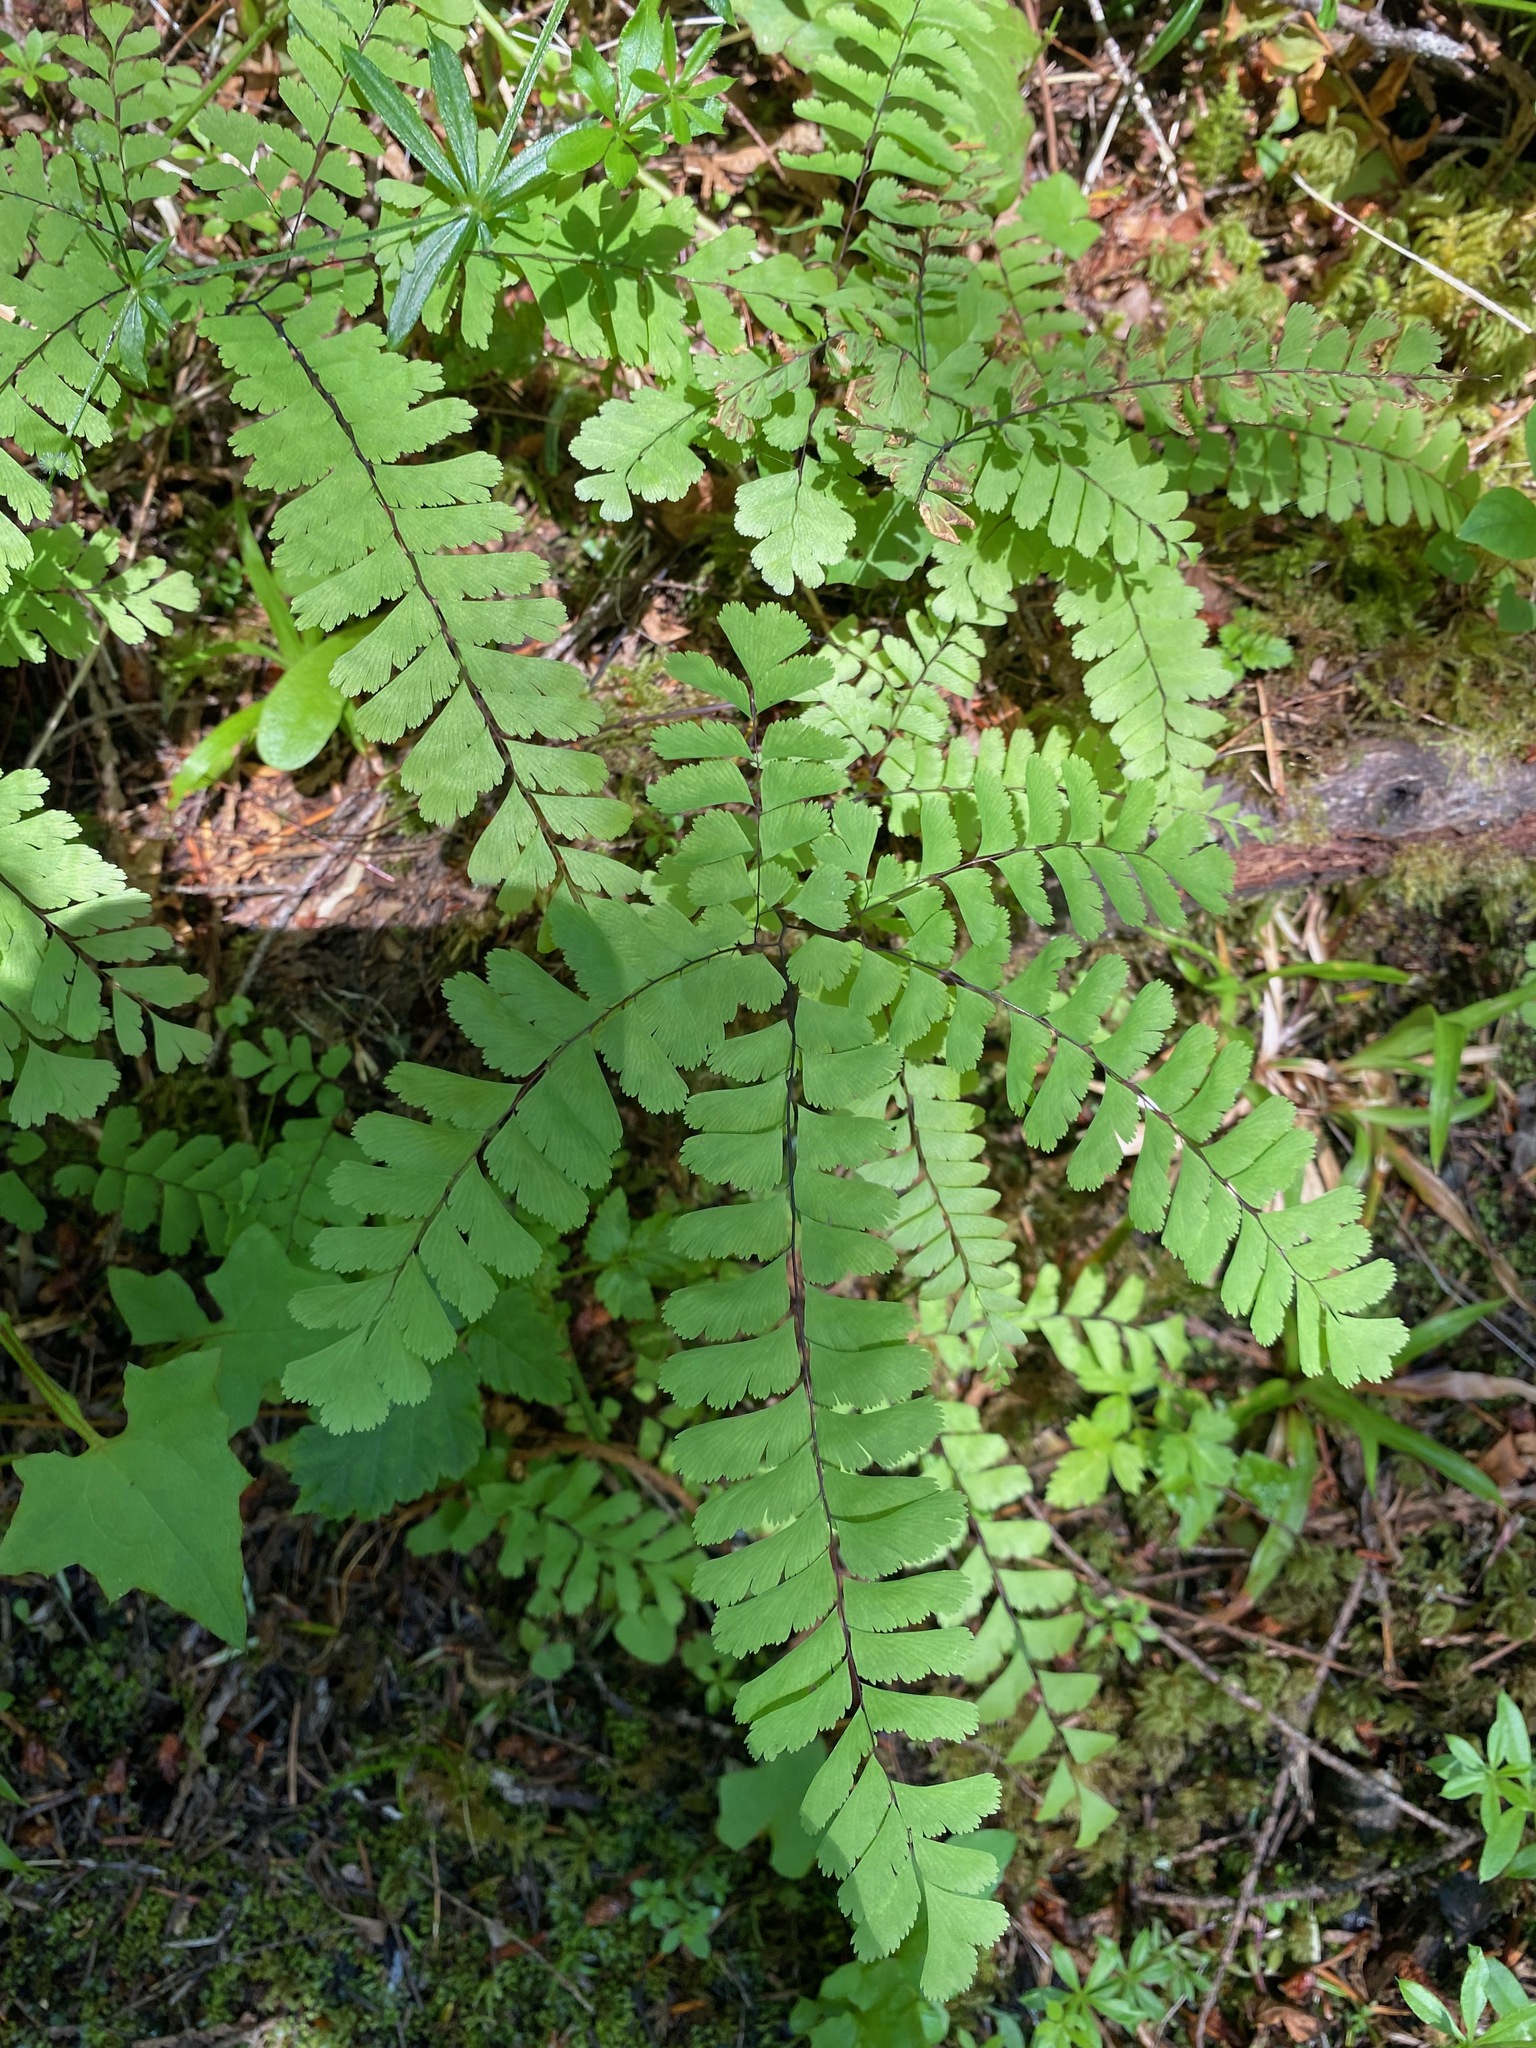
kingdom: Plantae
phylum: Tracheophyta
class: Polypodiopsida
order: Polypodiales
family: Pteridaceae
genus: Adiantum
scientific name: Adiantum aleuticum
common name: Aleutian maidenhair fern
